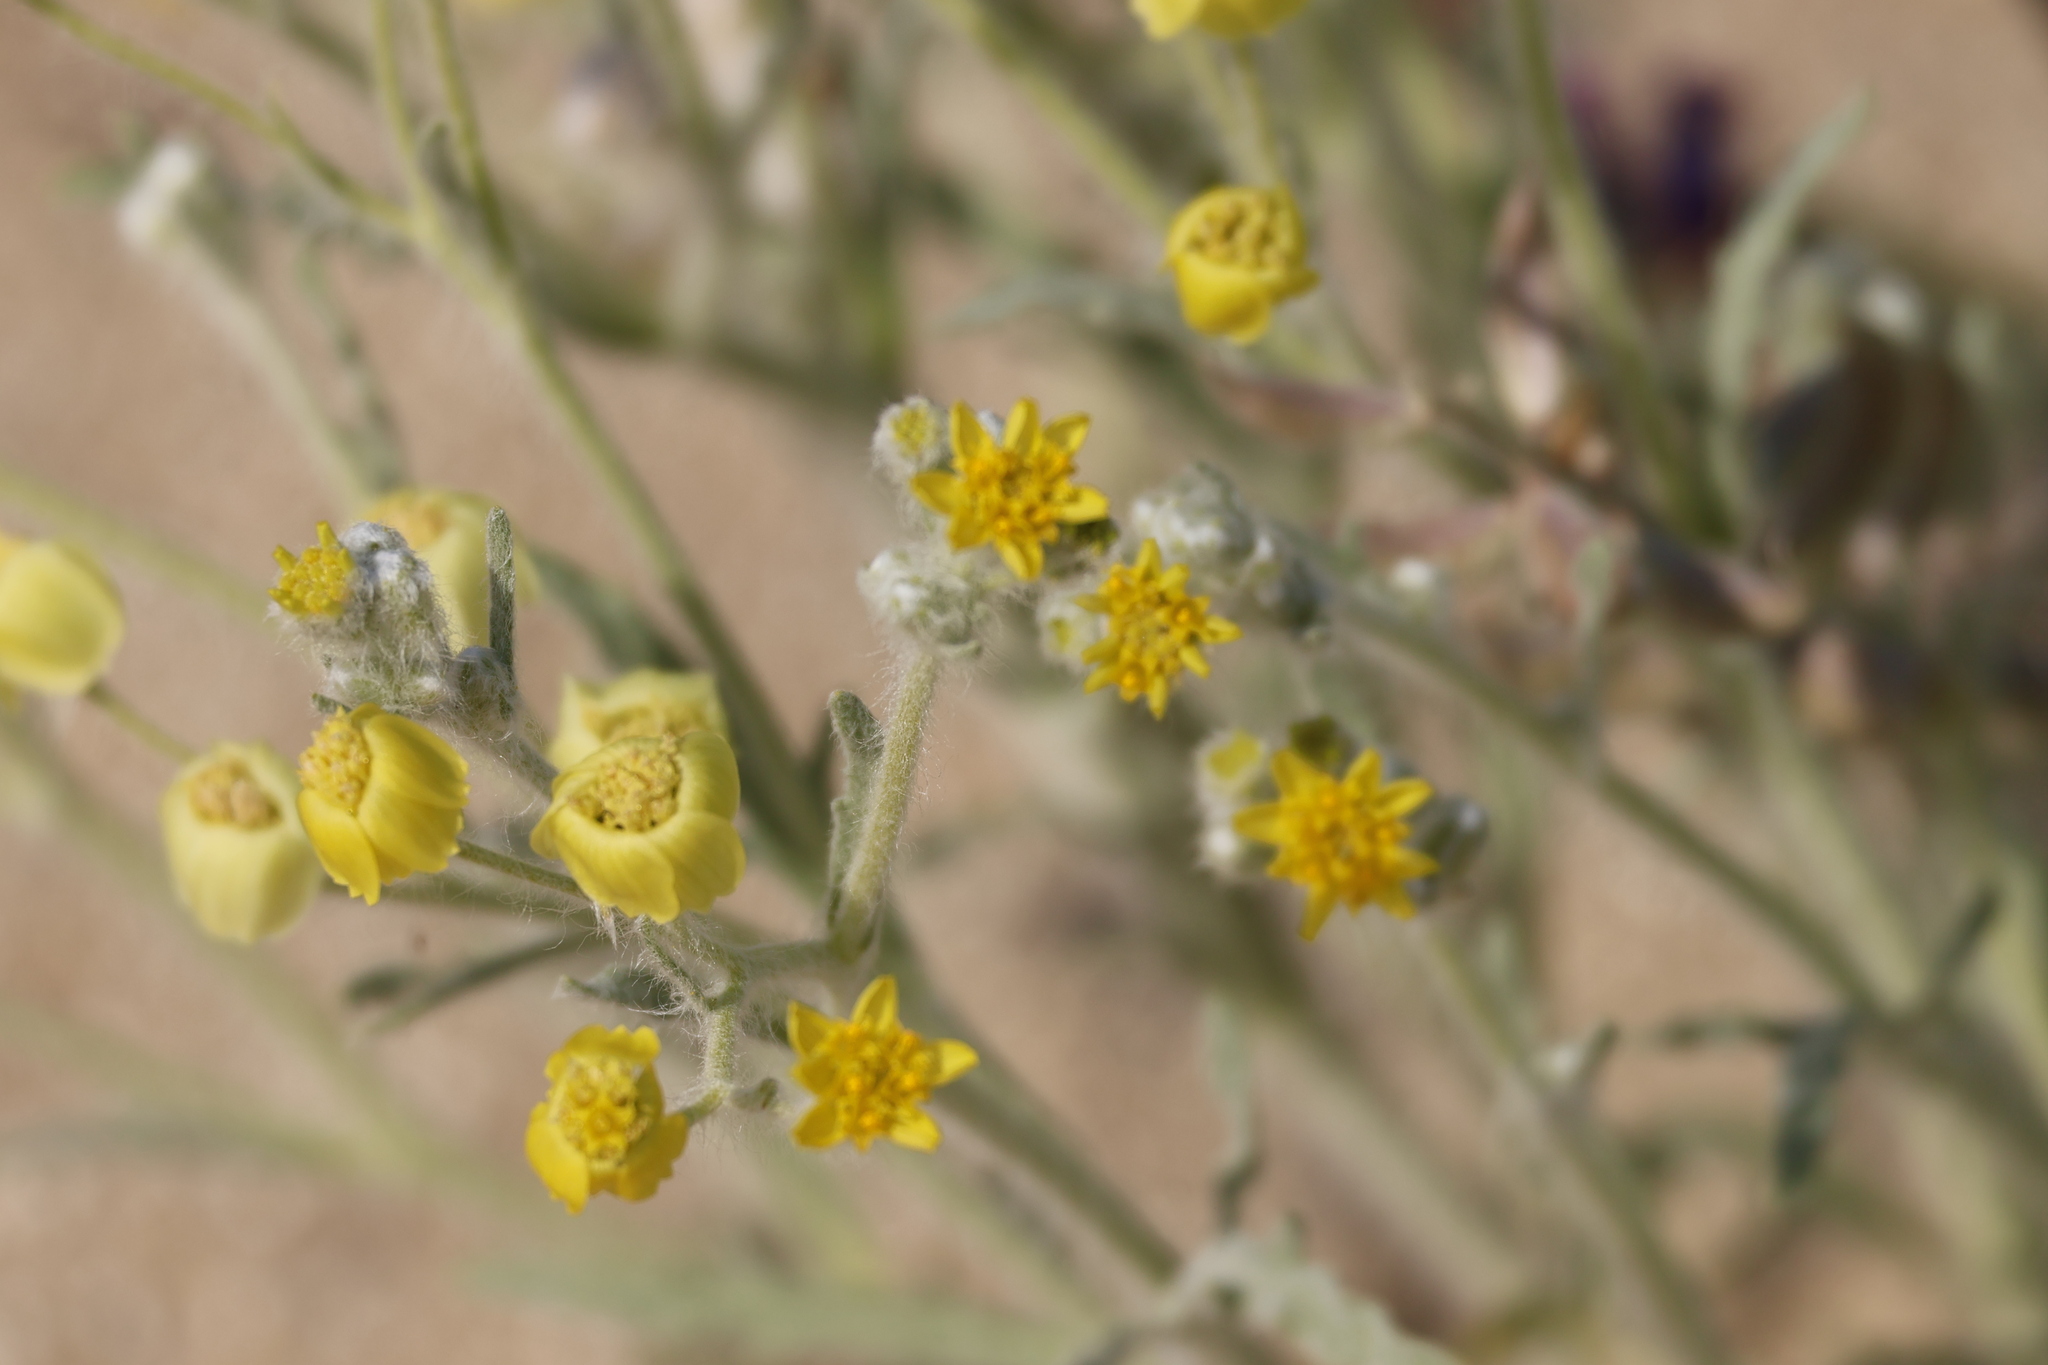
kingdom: Plantae
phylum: Tracheophyta
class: Magnoliopsida
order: Asterales
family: Asteraceae
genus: Baileya
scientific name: Baileya pauciradiata
